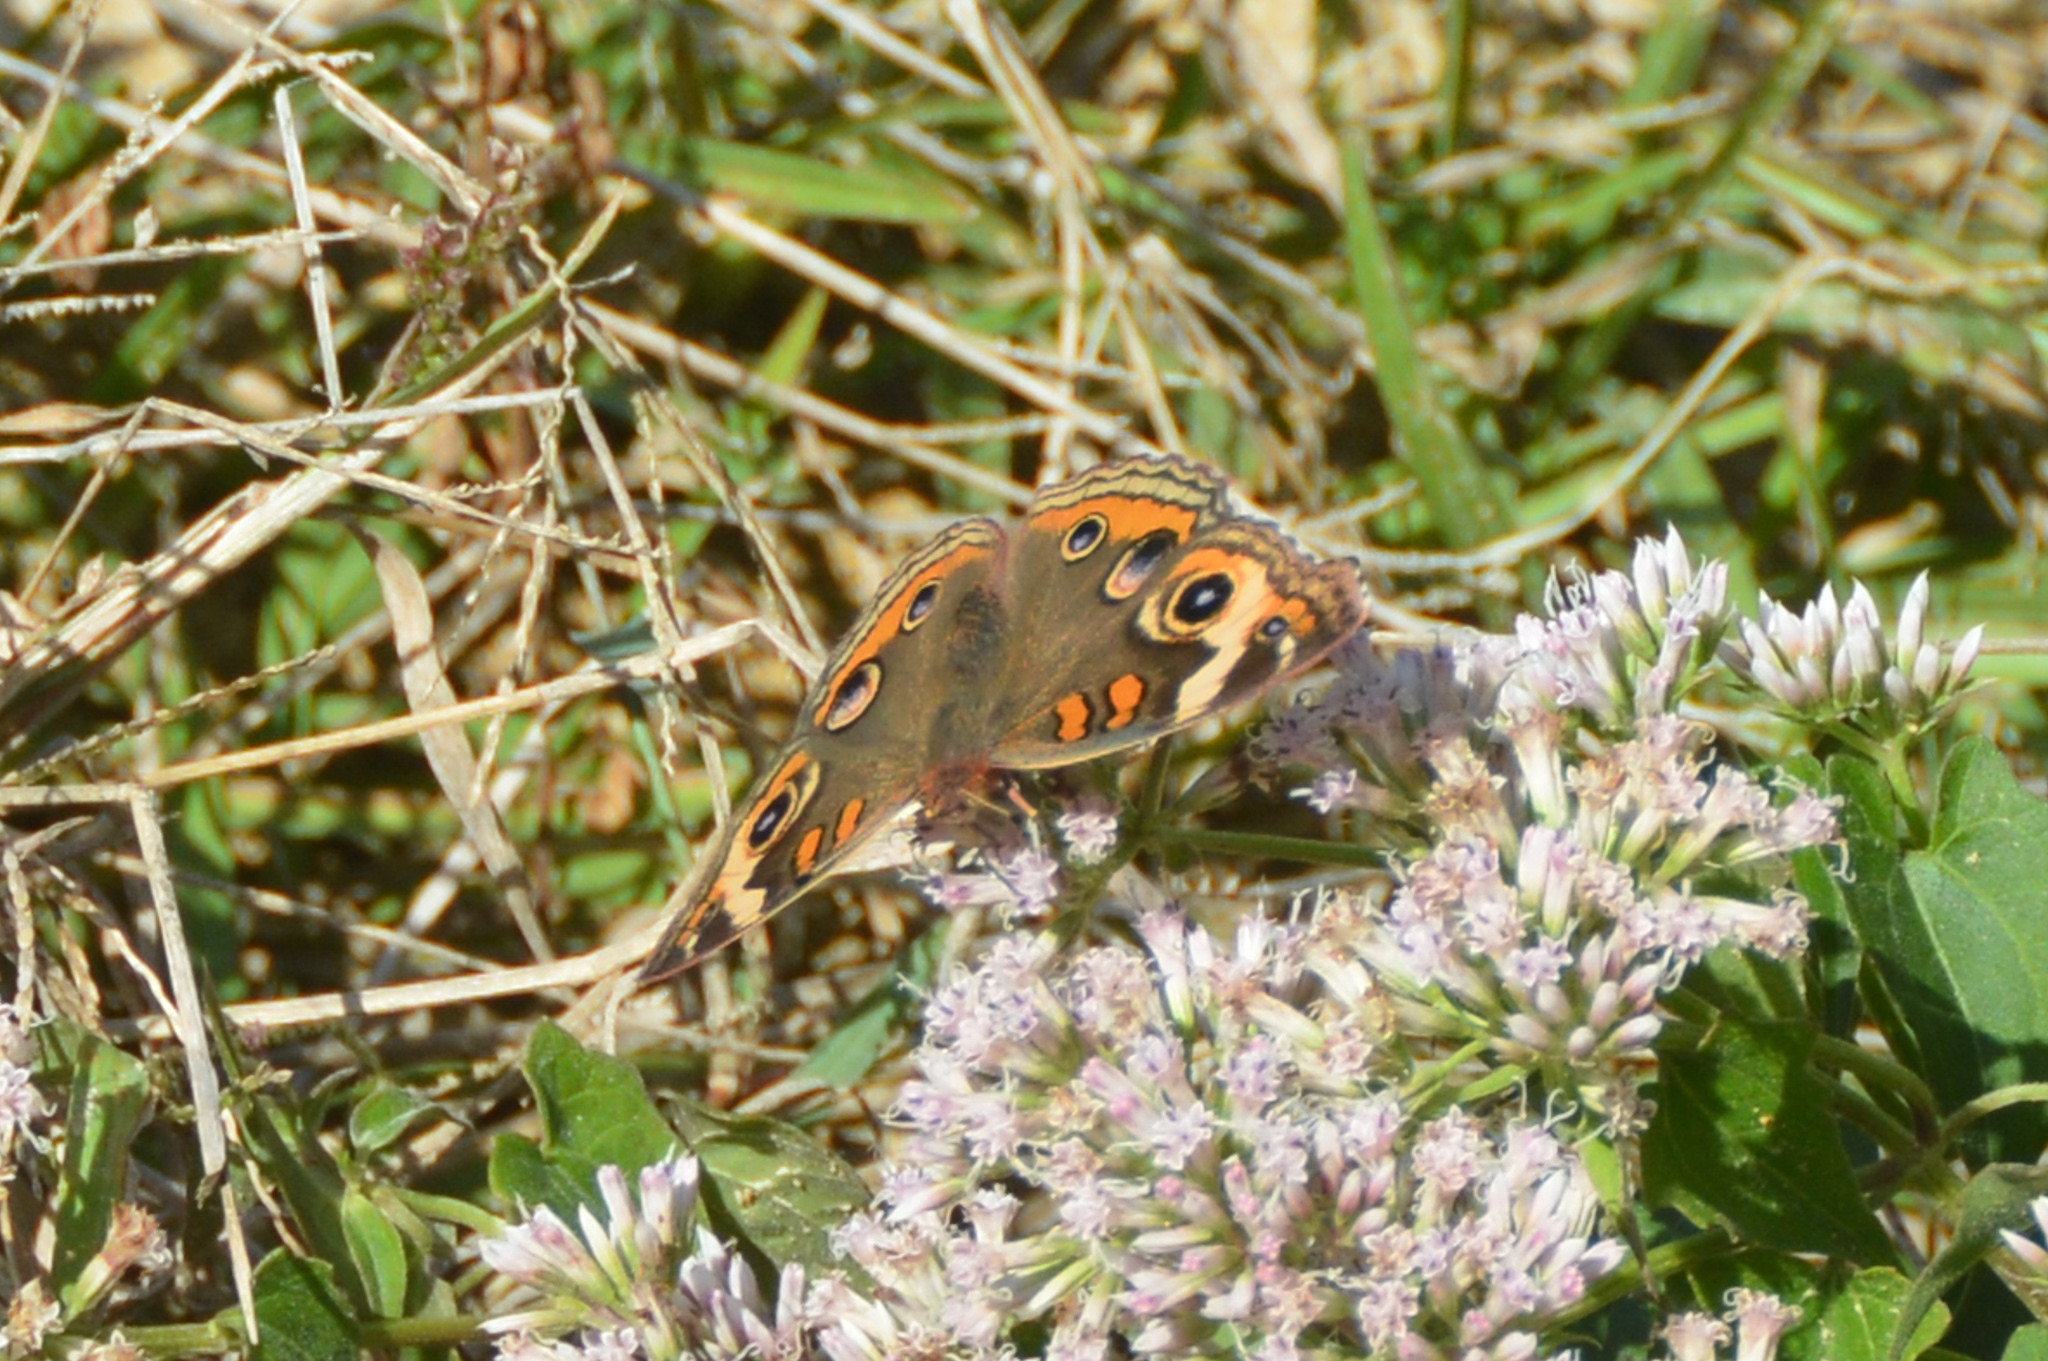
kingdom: Animalia
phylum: Arthropoda
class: Insecta
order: Lepidoptera
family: Nymphalidae
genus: Junonia
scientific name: Junonia coenia
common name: Common buckeye
